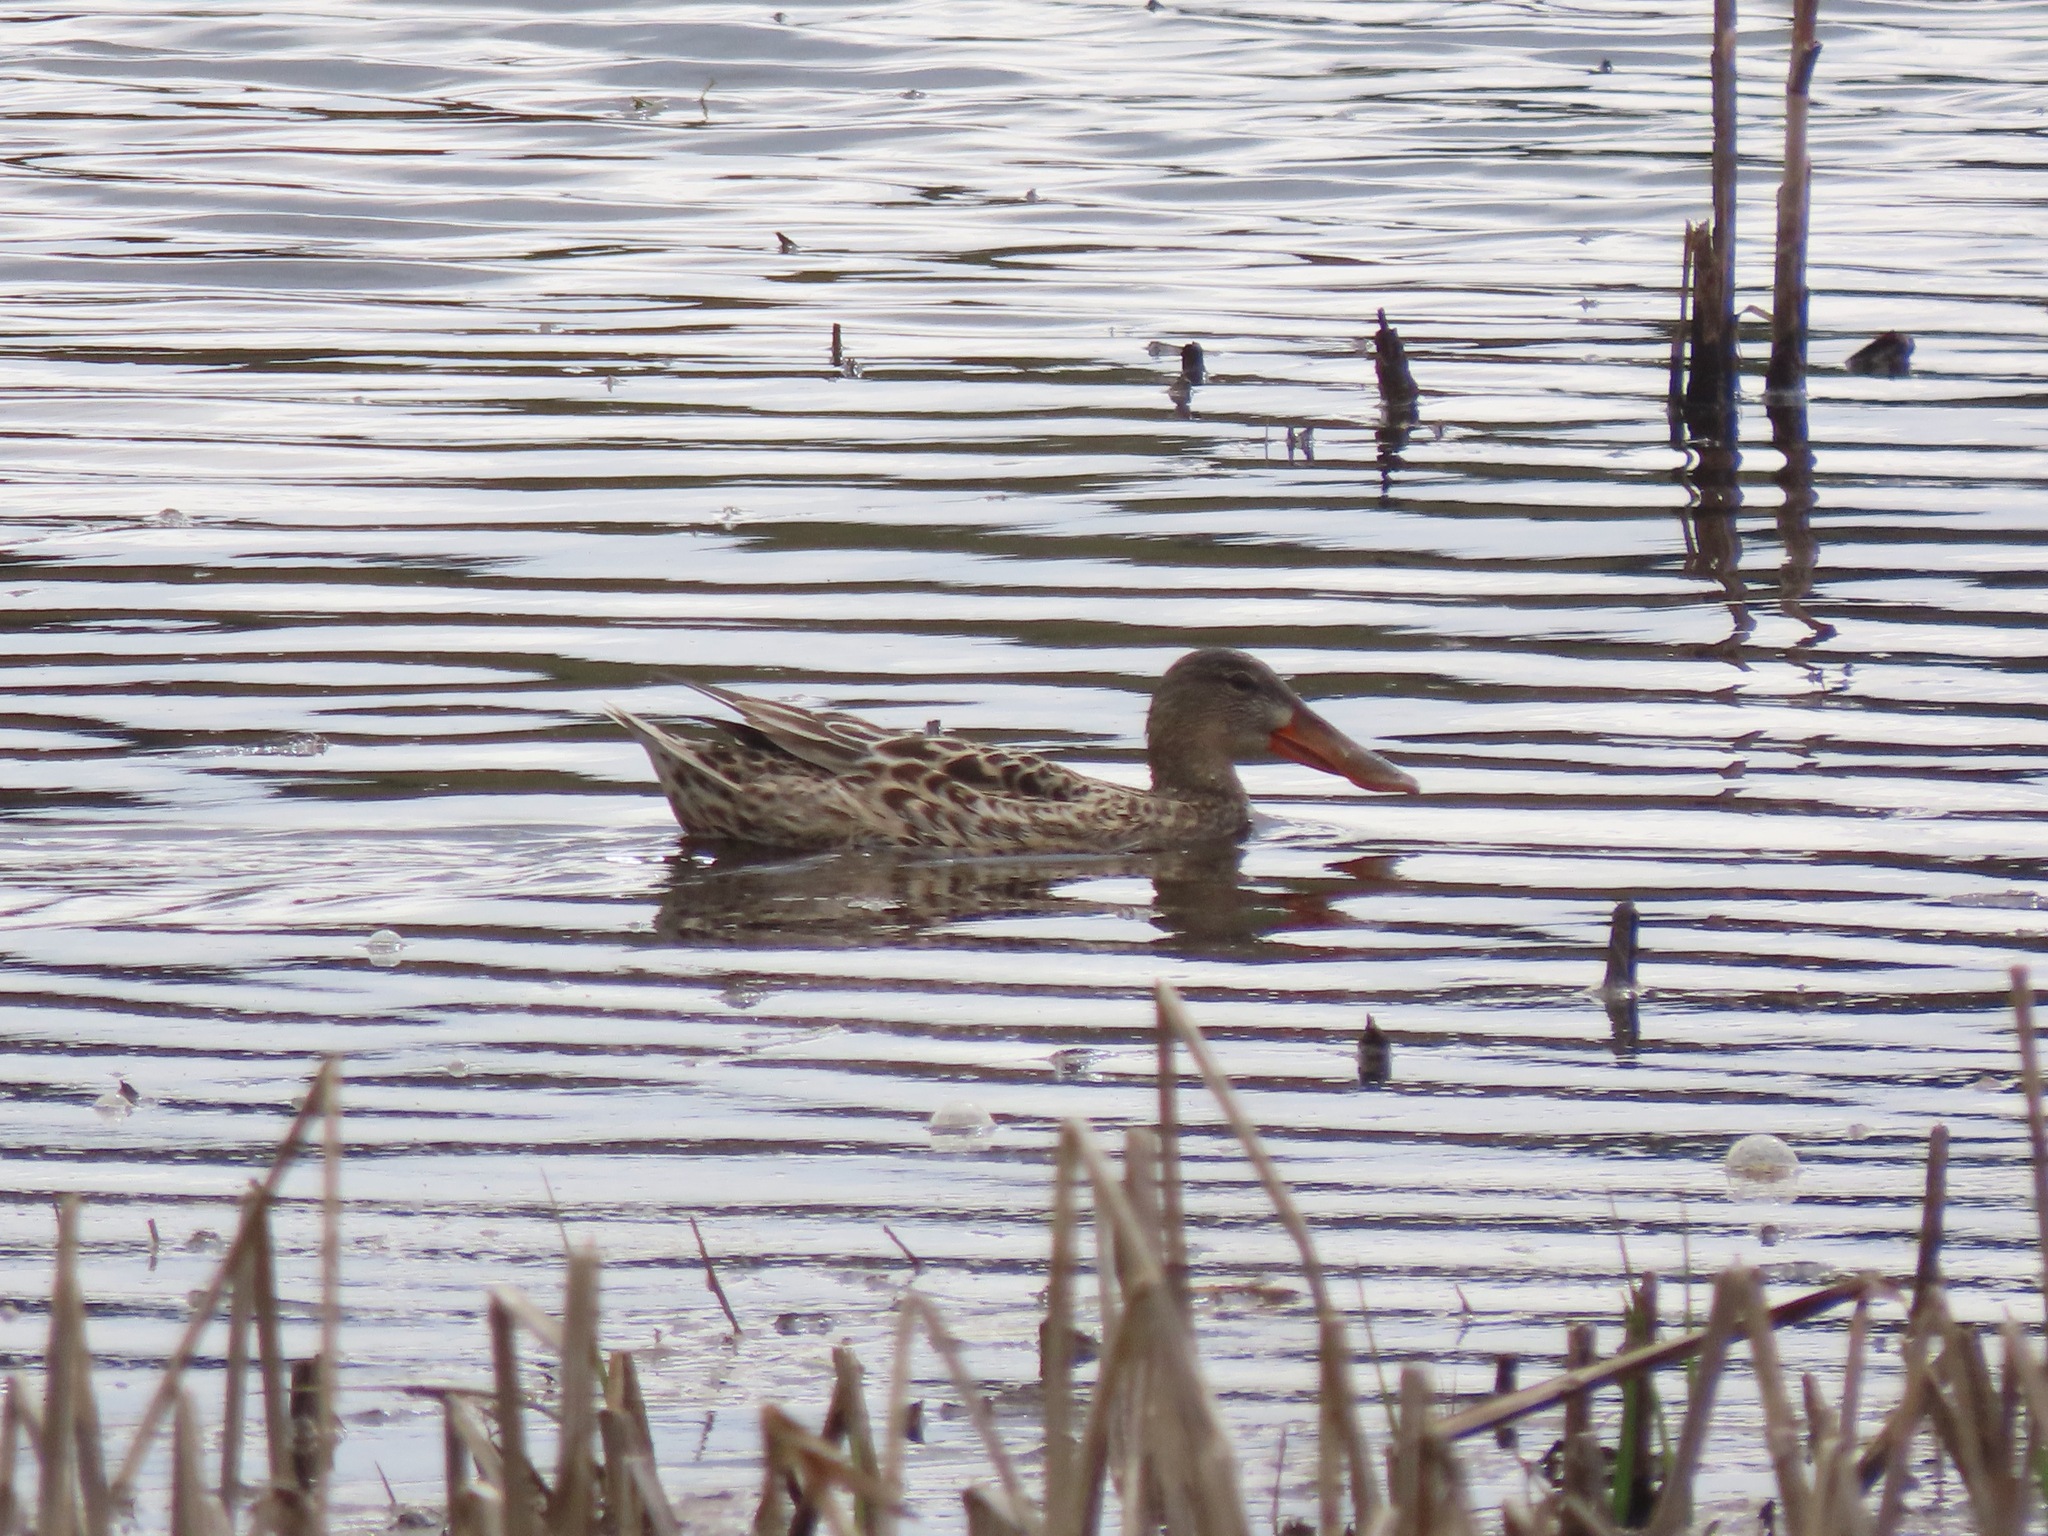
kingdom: Animalia
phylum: Chordata
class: Aves
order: Anseriformes
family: Anatidae
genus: Spatula
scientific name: Spatula clypeata
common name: Northern shoveler
